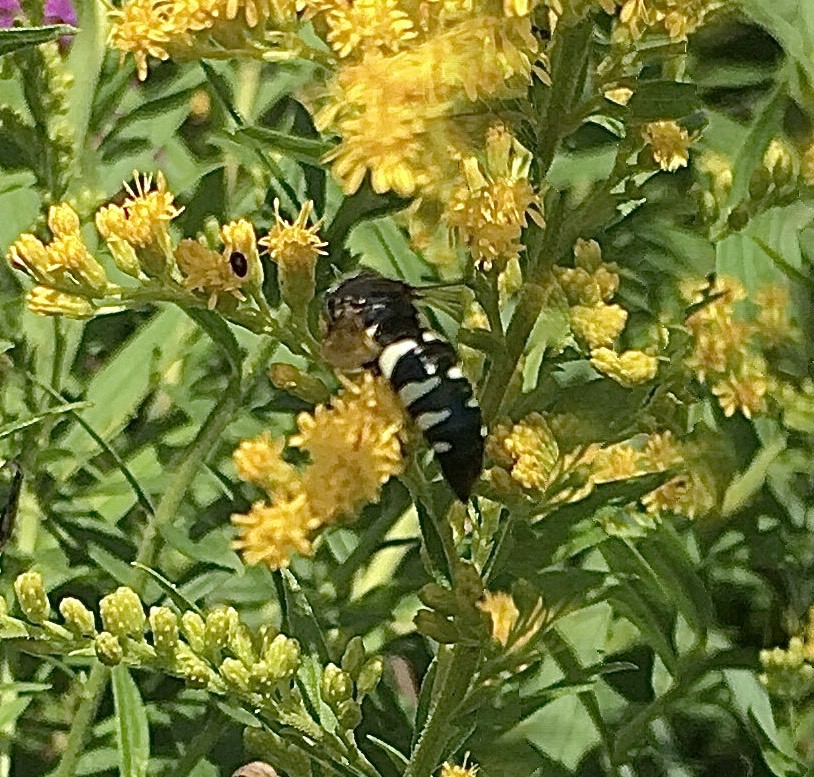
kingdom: Animalia
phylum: Arthropoda
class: Insecta
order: Hymenoptera
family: Crabronidae
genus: Bicyrtes
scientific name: Bicyrtes quadrifasciatus
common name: Four-banded stink bug hunter wasp
